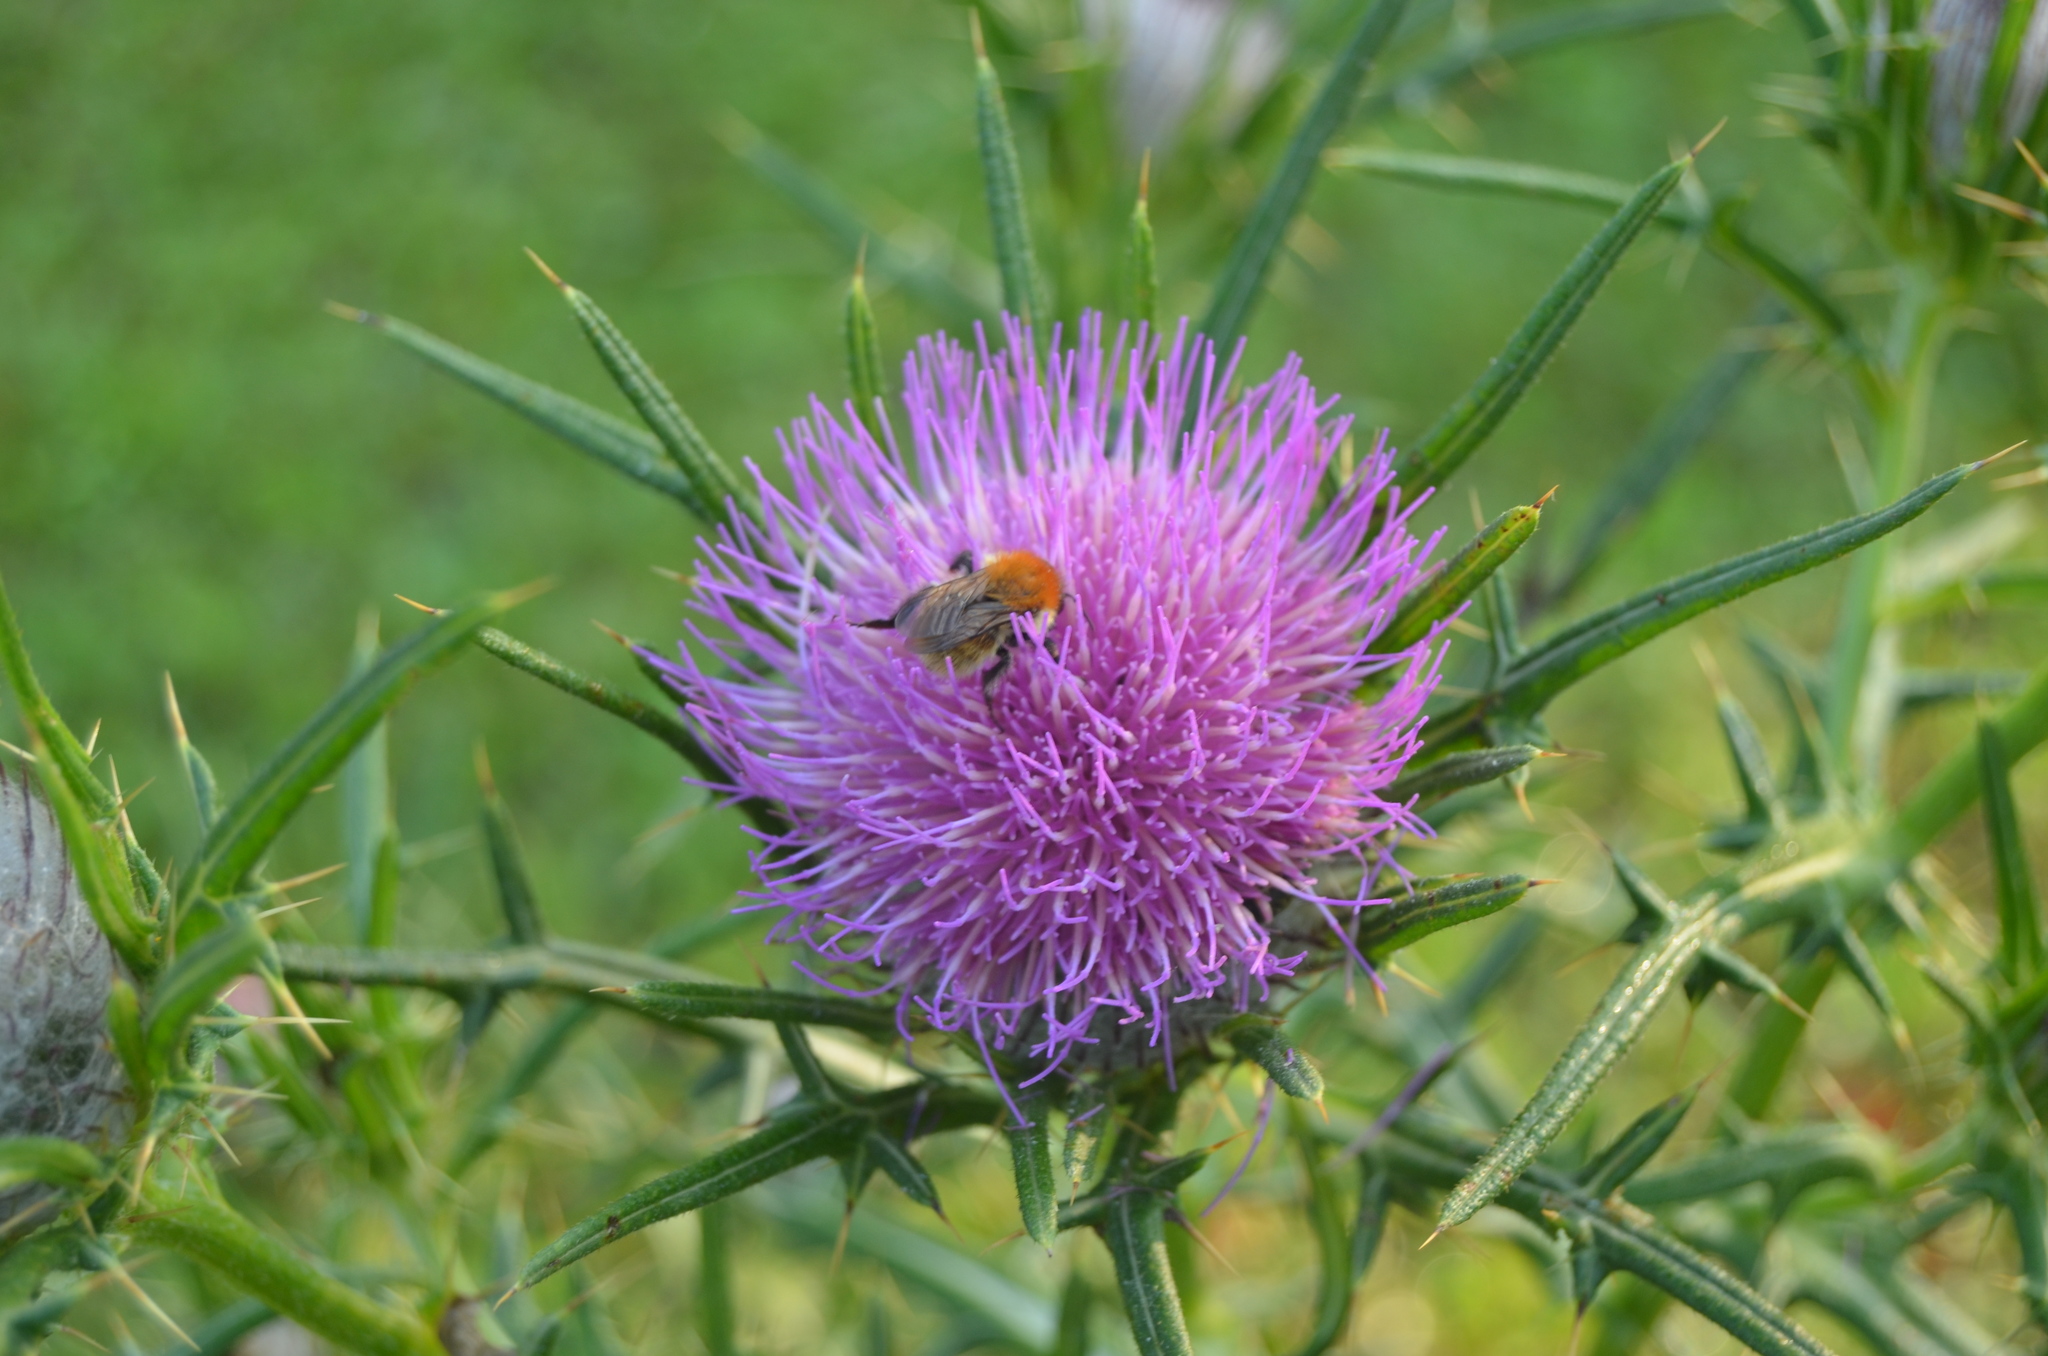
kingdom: Plantae
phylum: Tracheophyta
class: Magnoliopsida
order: Asterales
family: Asteraceae
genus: Cirsium
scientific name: Cirsium vulgare
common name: Bull thistle
